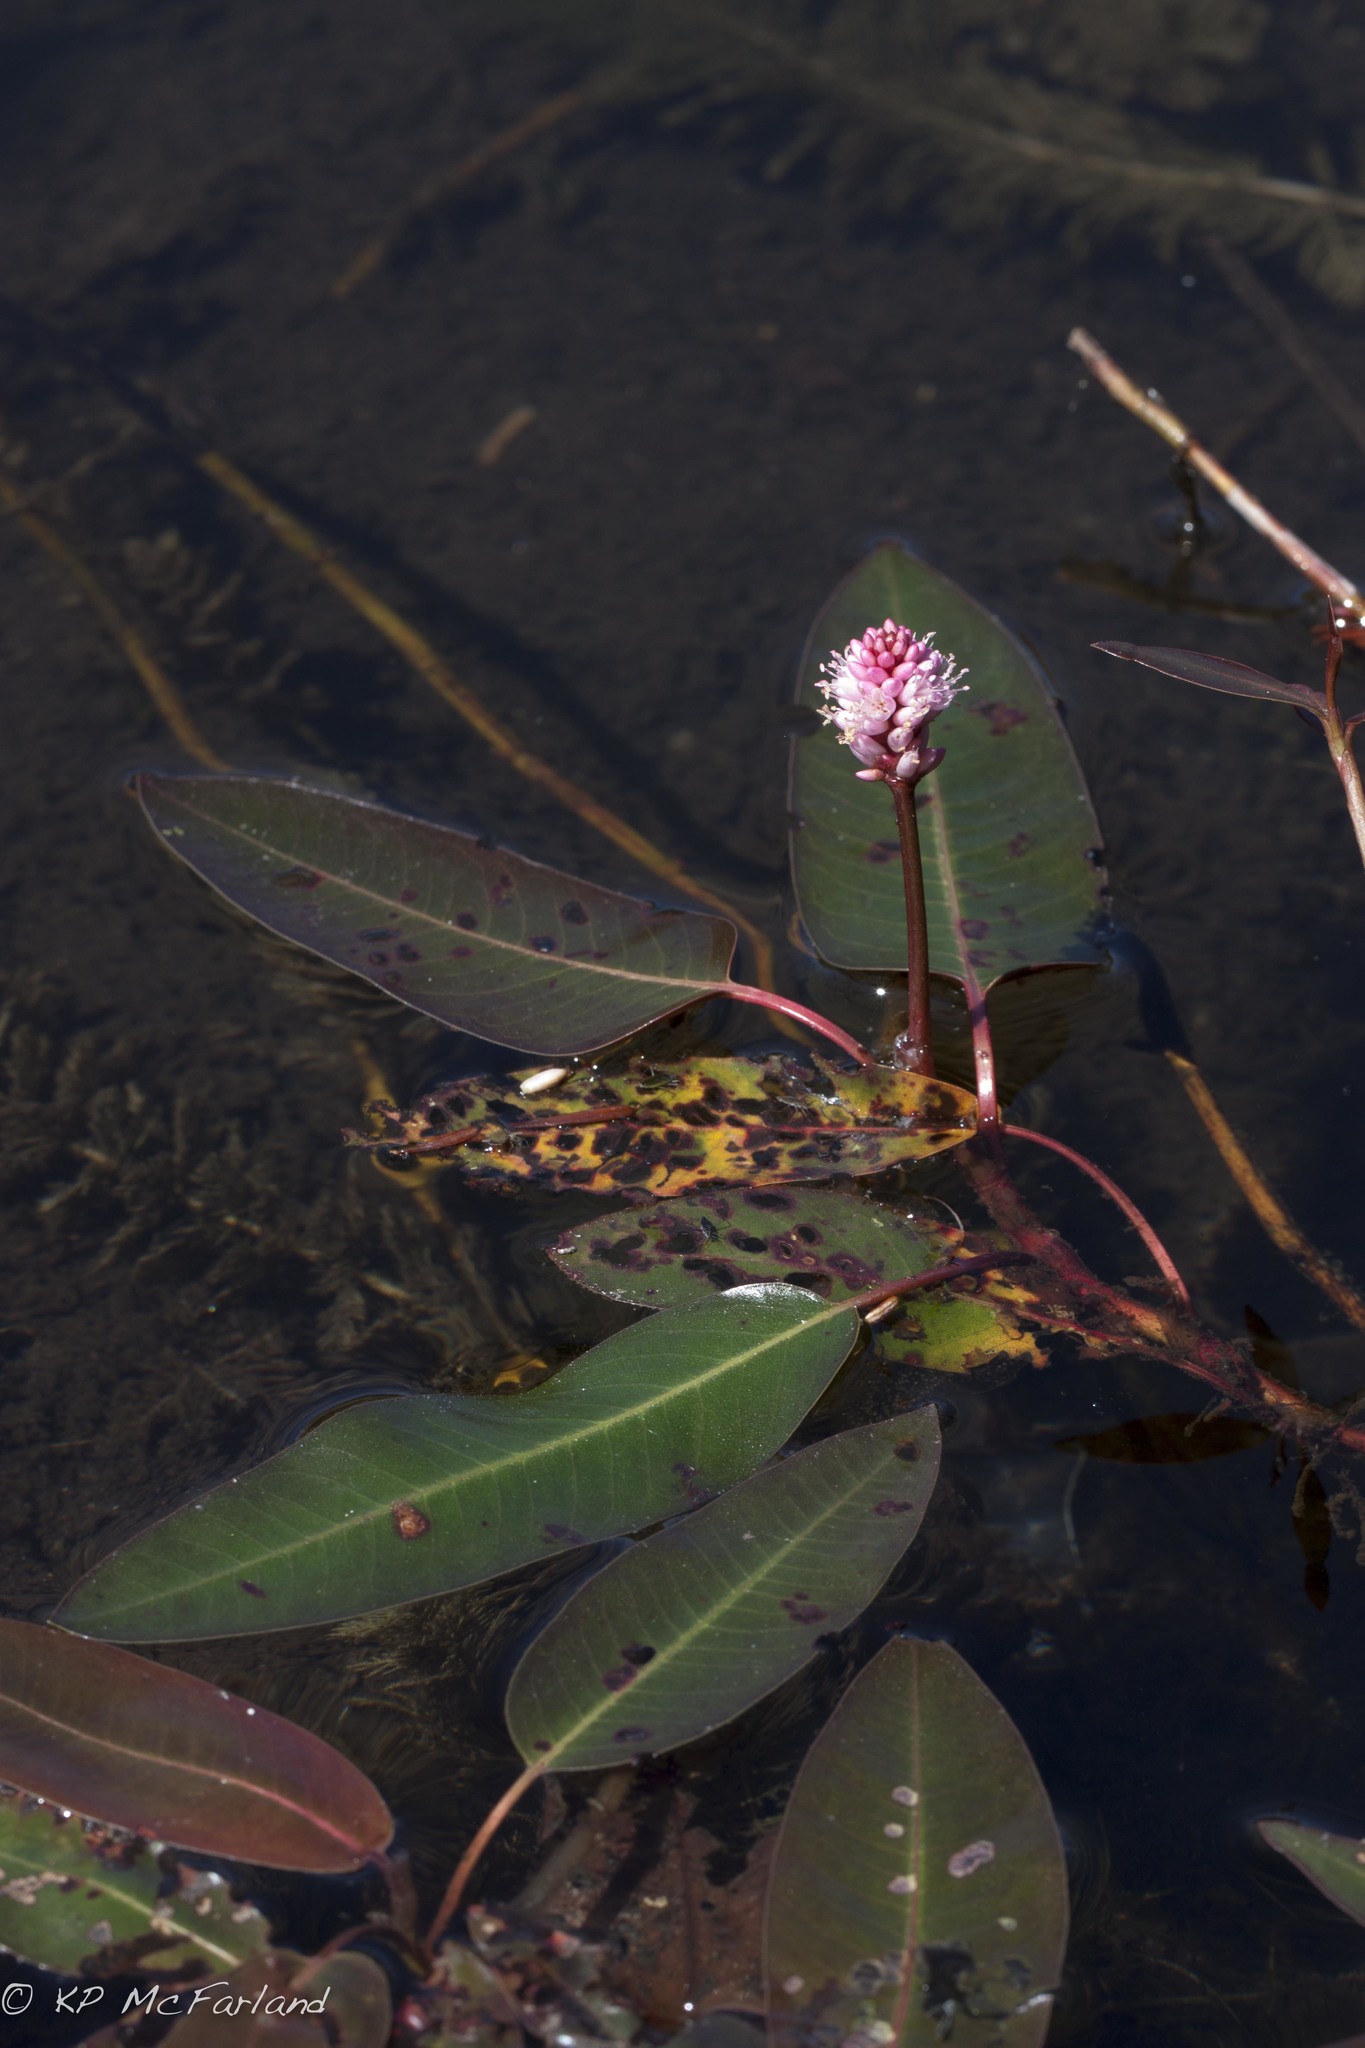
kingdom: Plantae
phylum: Tracheophyta
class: Magnoliopsida
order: Caryophyllales
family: Polygonaceae
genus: Persicaria
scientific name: Persicaria amphibia
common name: Amphibious bistort
